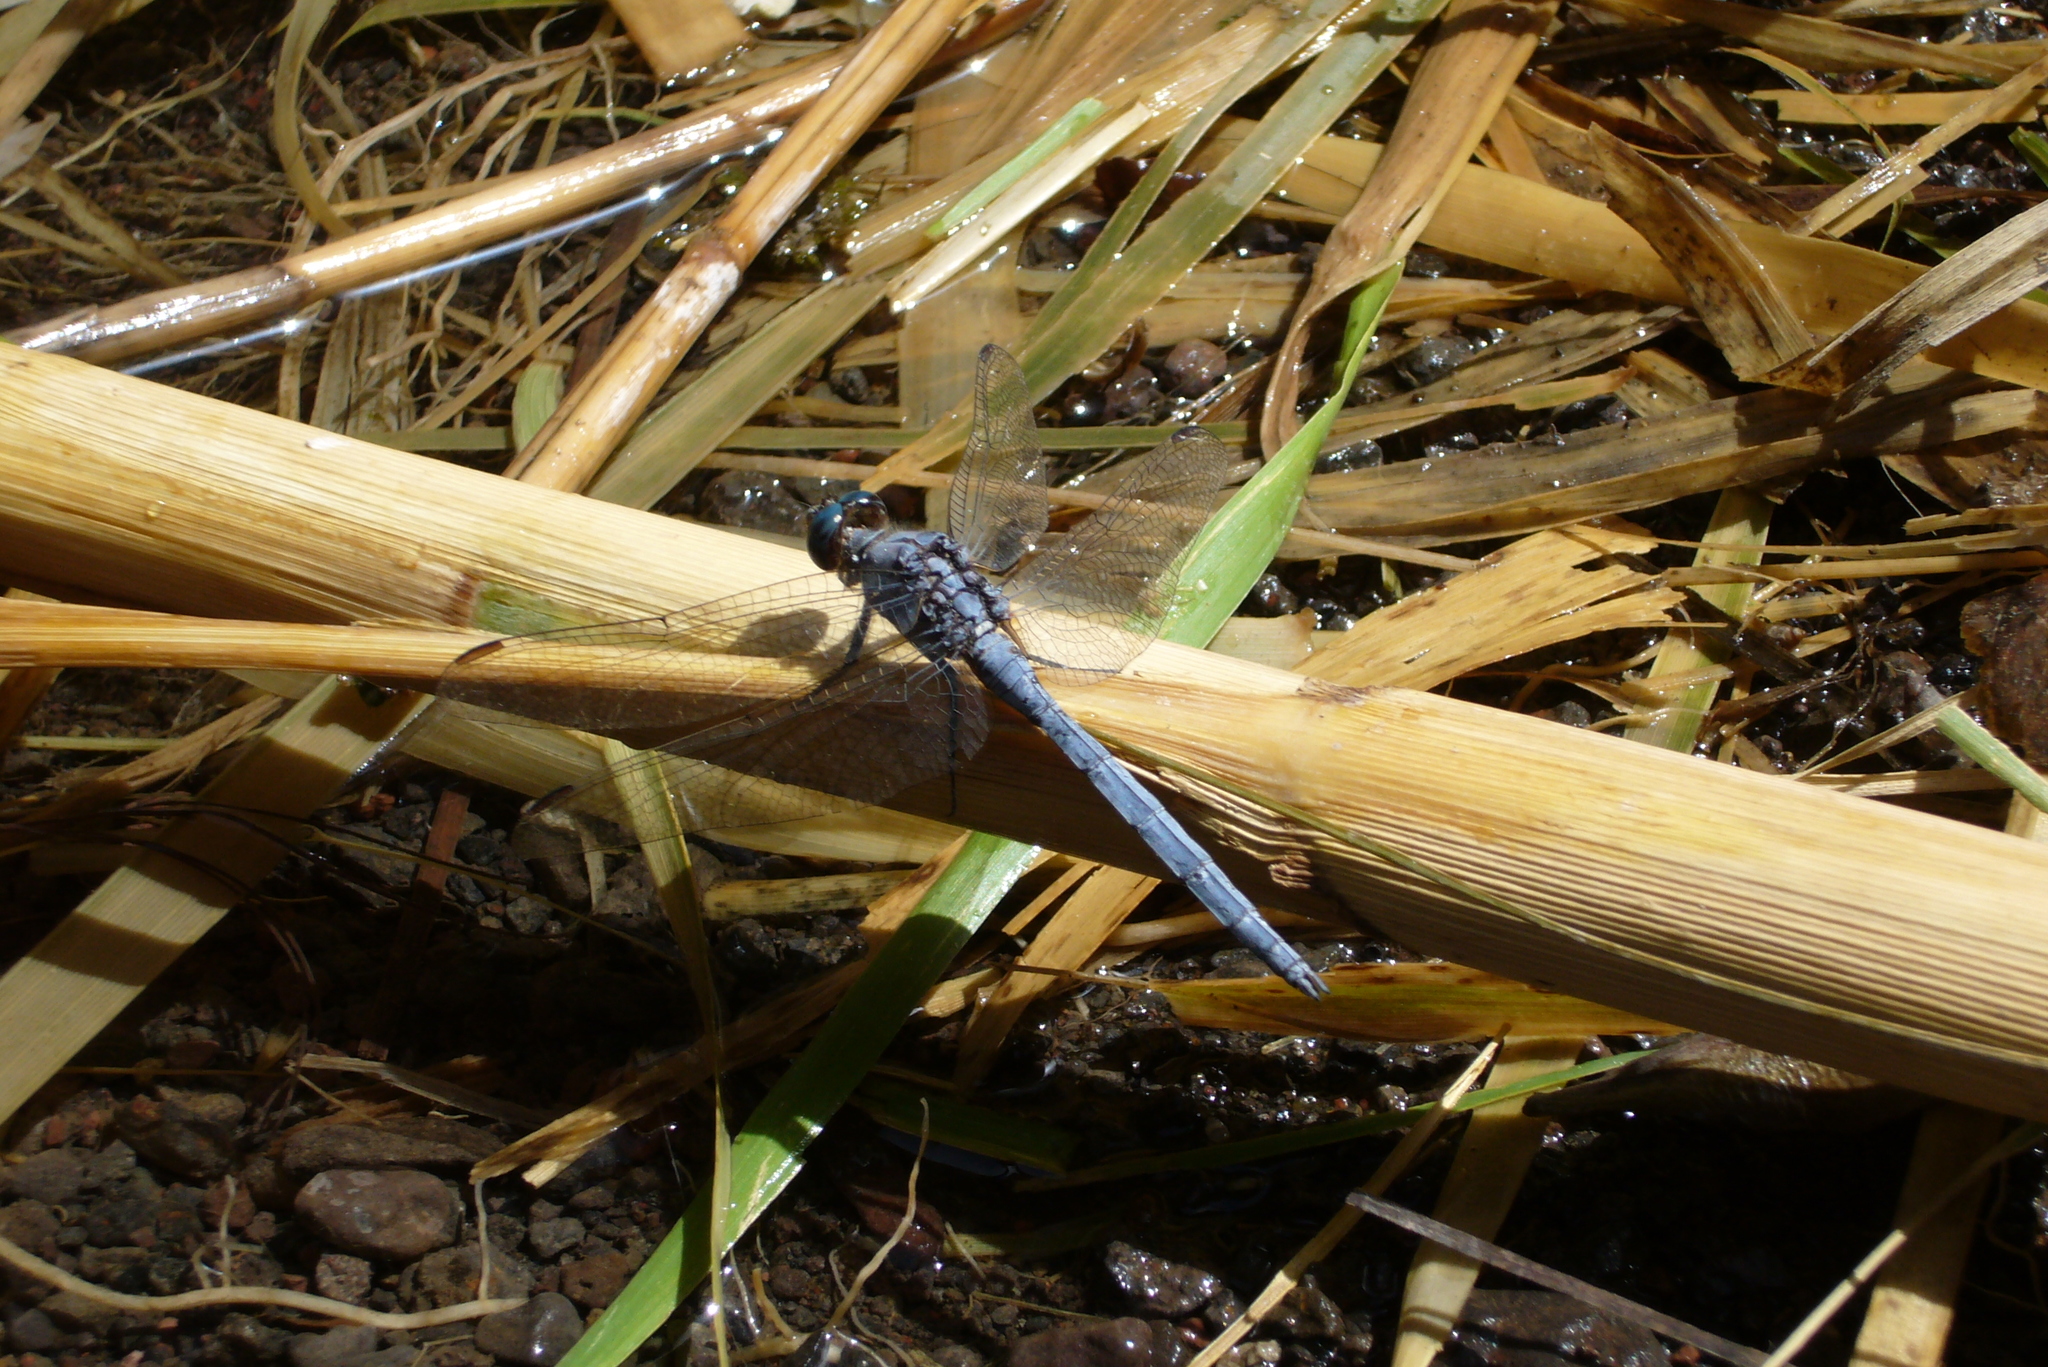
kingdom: Animalia
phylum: Arthropoda
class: Insecta
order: Odonata
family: Libellulidae
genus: Orthetrum
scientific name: Orthetrum chrysostigma
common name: Epaulet skimmer
